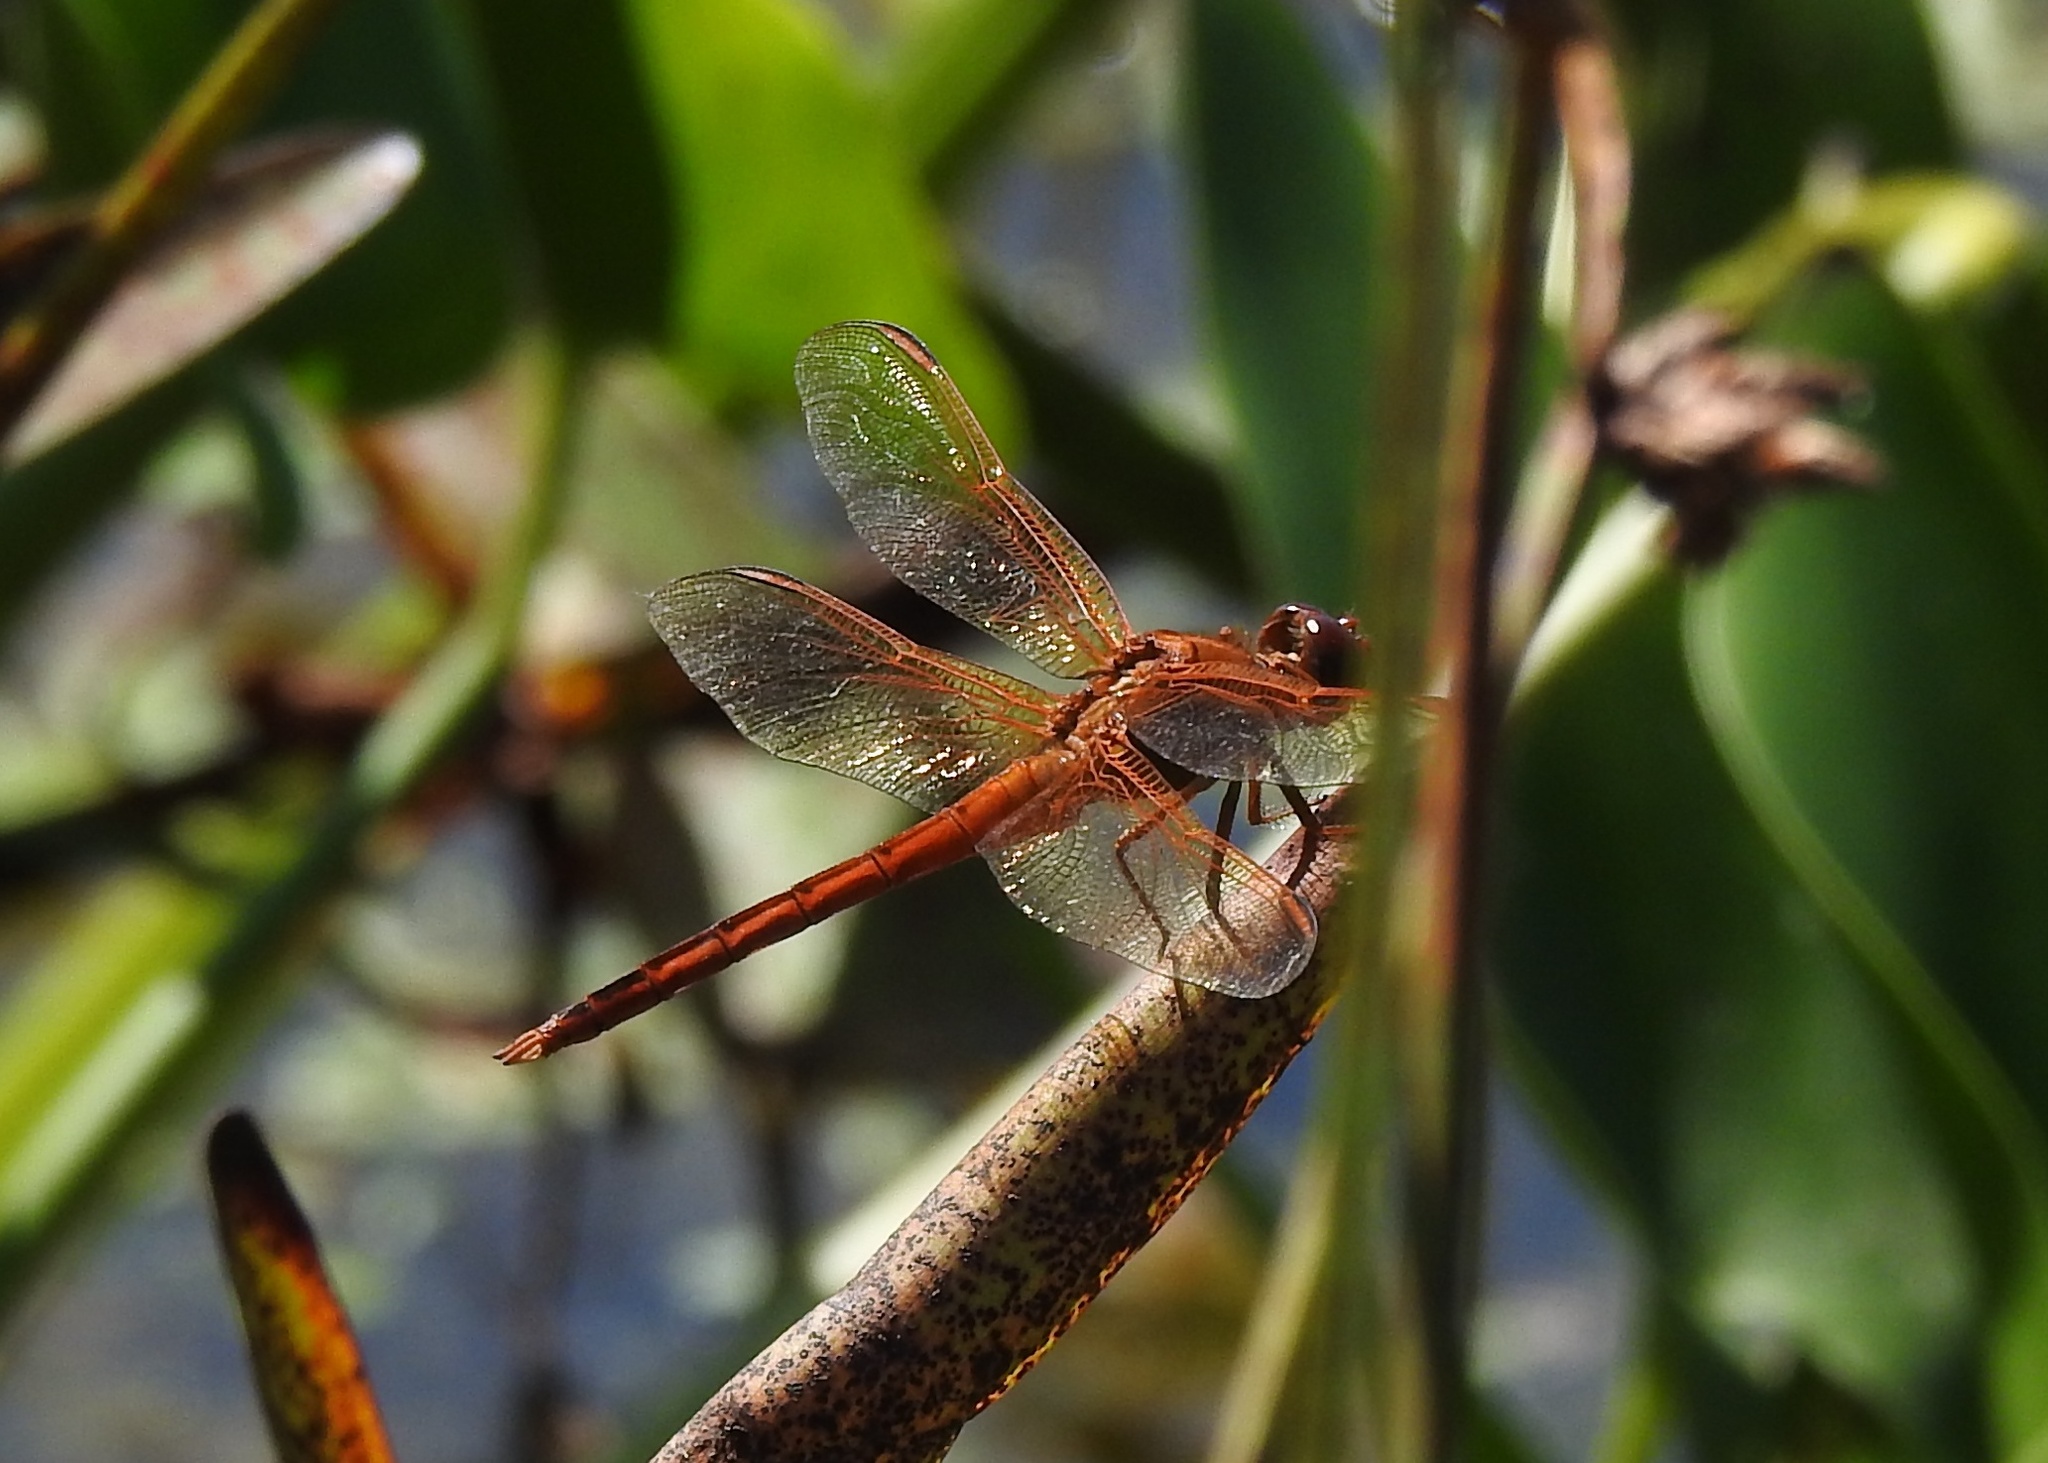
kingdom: Animalia
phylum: Arthropoda
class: Insecta
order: Odonata
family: Libellulidae
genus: Libellula
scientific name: Libellula needhami
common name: Needham's skimmer
